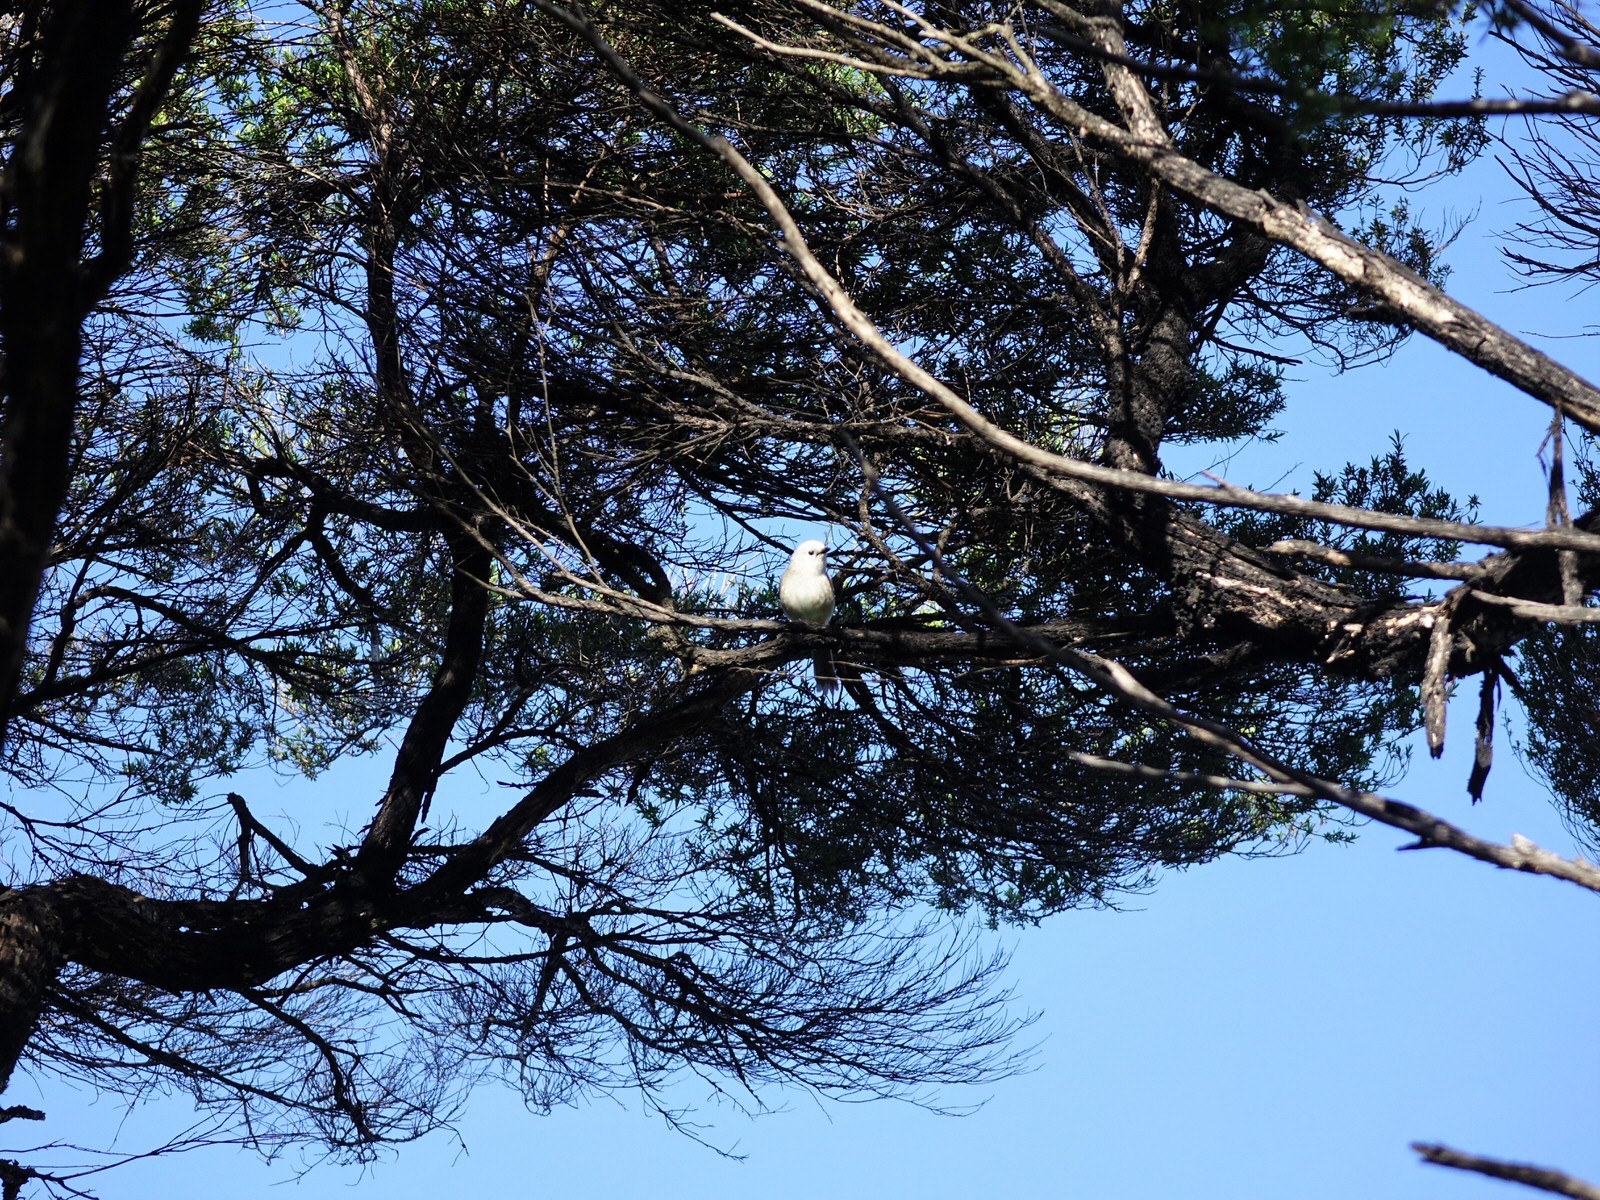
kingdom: Animalia
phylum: Chordata
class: Aves
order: Passeriformes
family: Acanthizidae
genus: Mohoua
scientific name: Mohoua albicilla
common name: Whitehead
